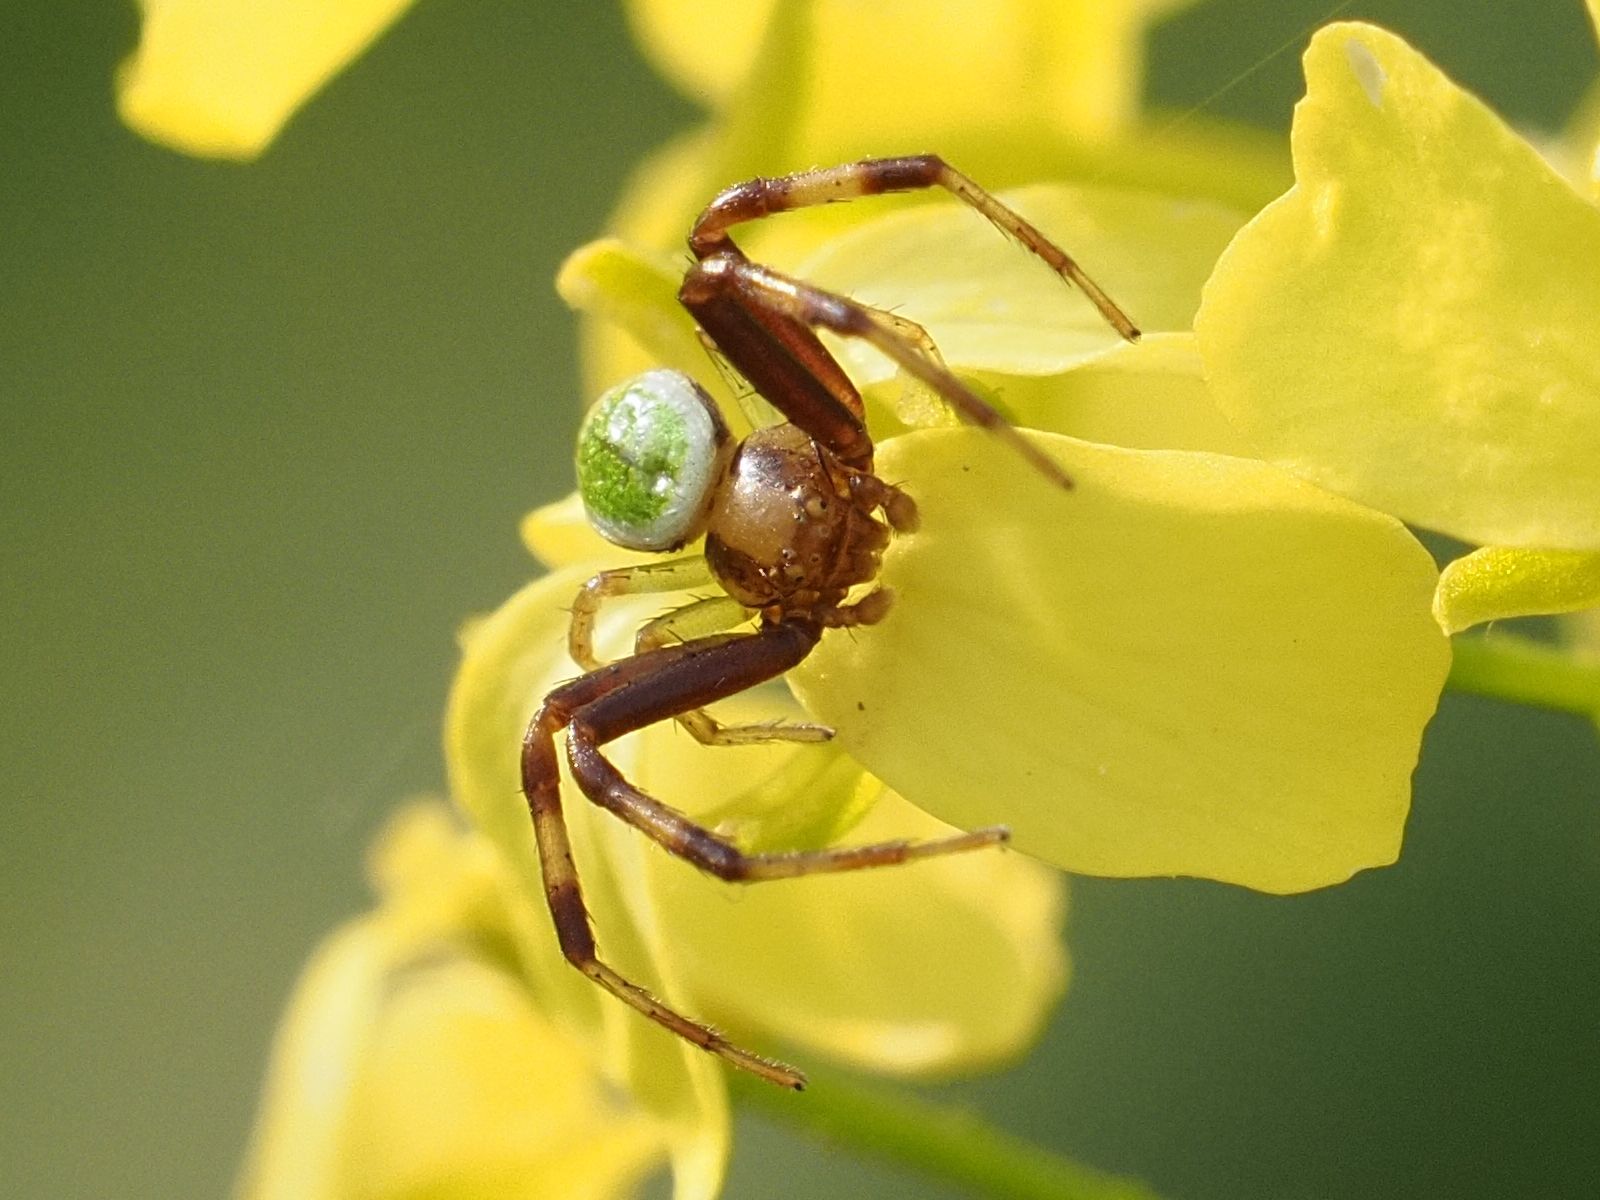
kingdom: Animalia
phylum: Arthropoda
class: Arachnida
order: Araneae
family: Thomisidae
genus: Ebrechtella
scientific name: Ebrechtella tricuspidata
